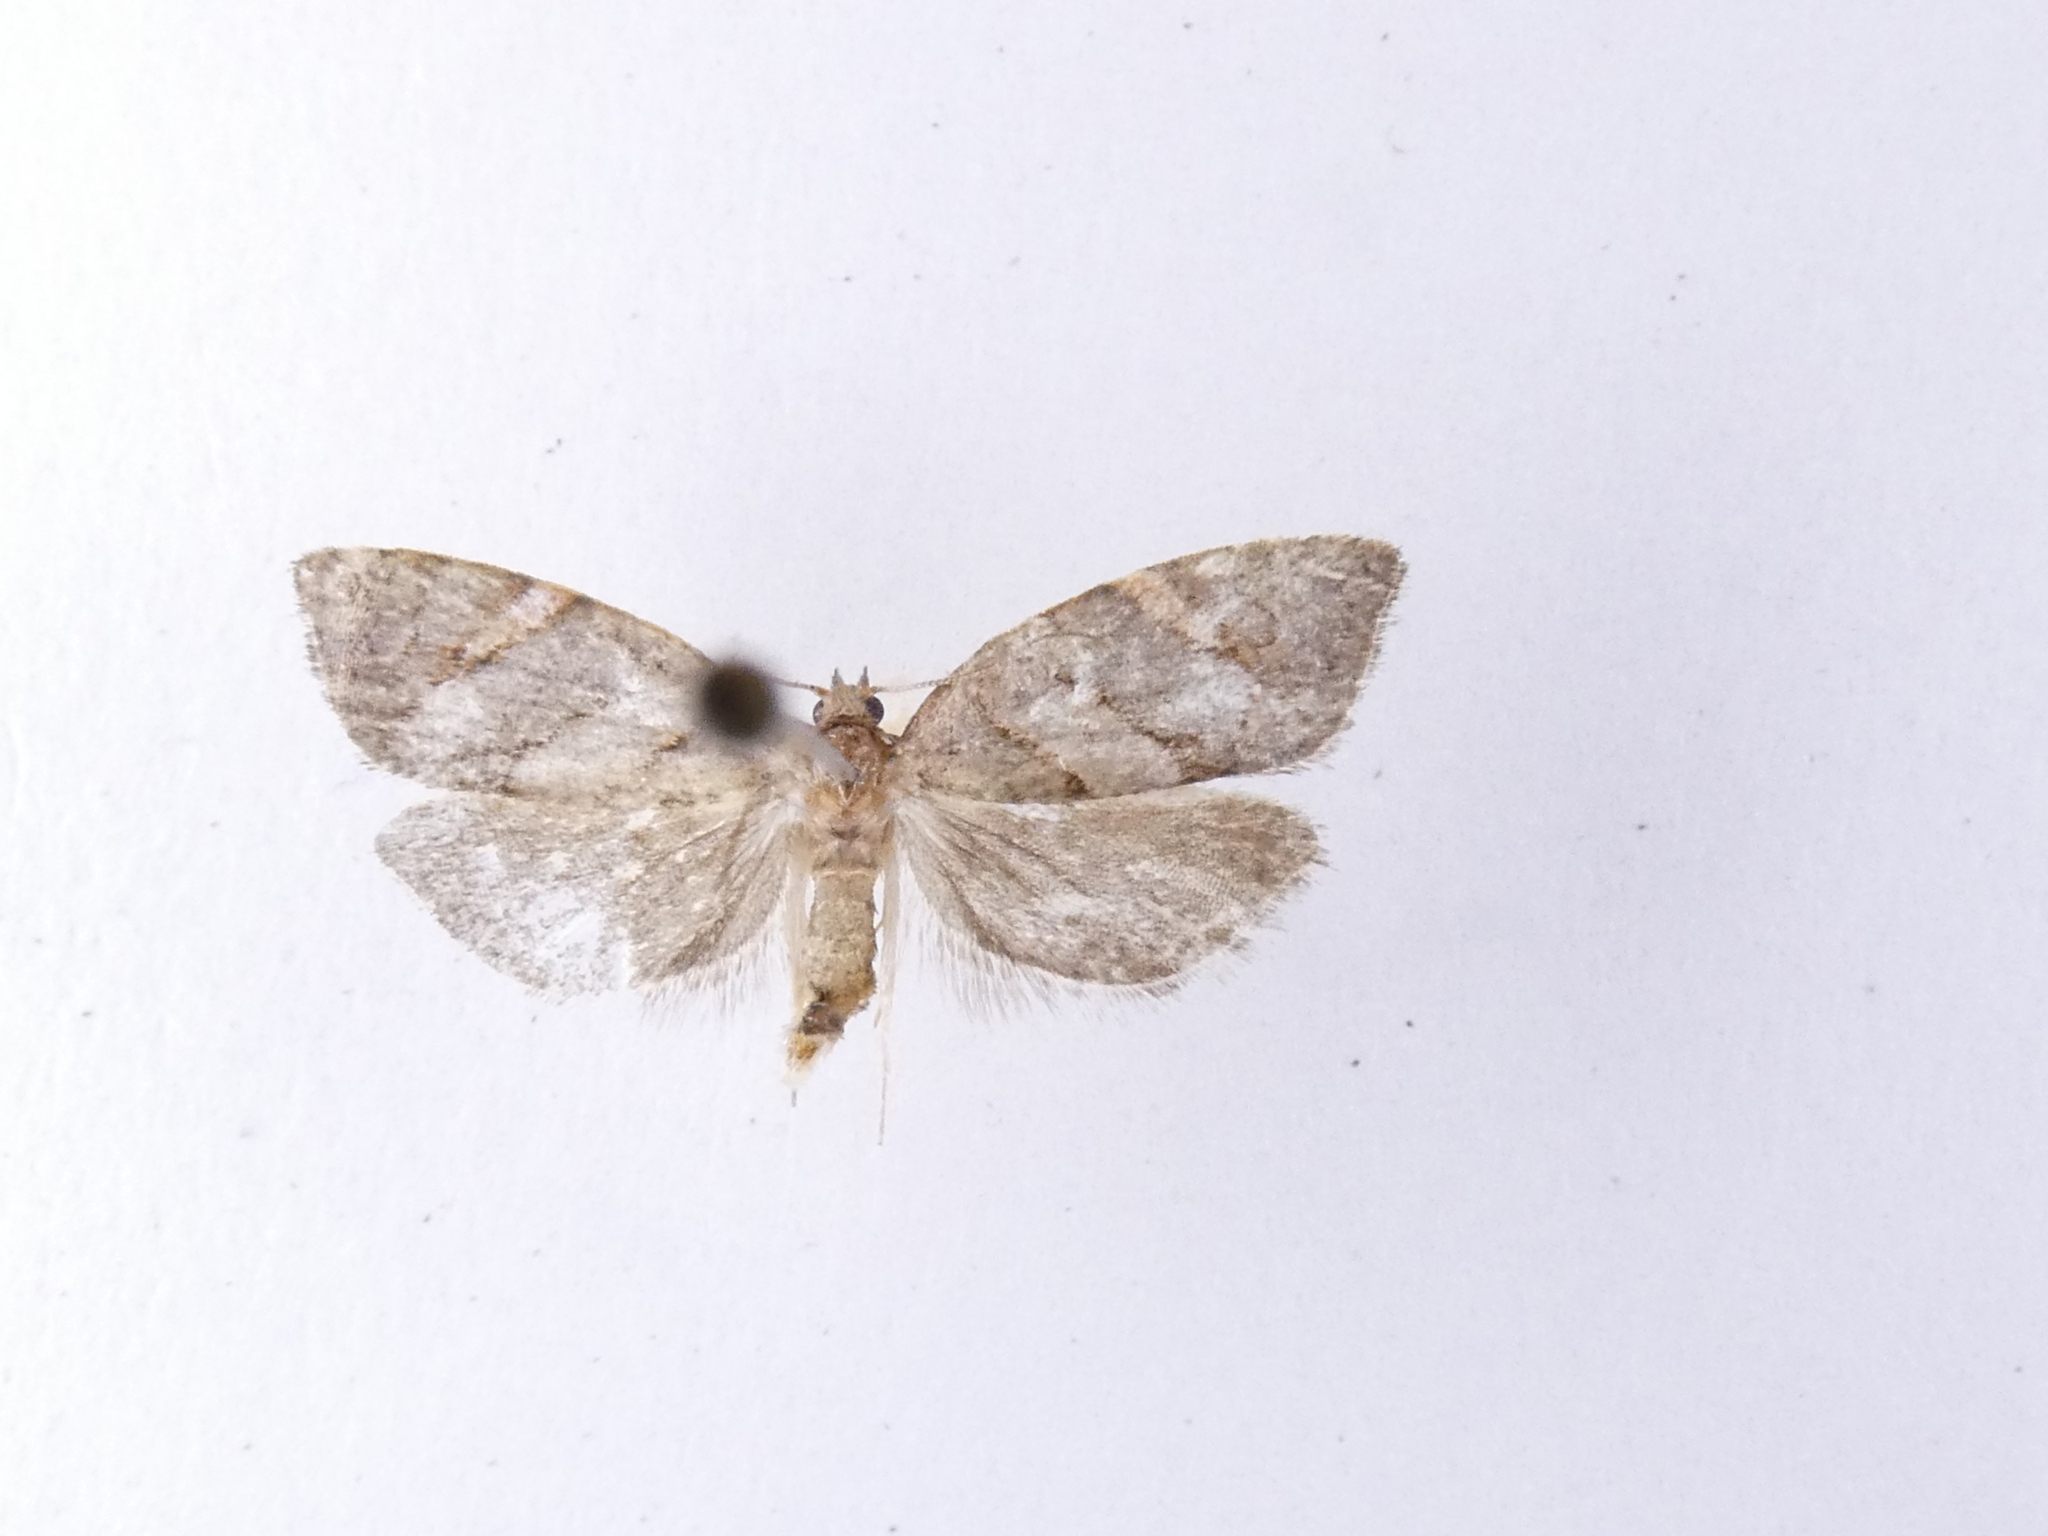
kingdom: Animalia
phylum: Arthropoda
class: Insecta
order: Lepidoptera
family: Tortricidae
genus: Ecclitica
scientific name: Ecclitica torogramma
